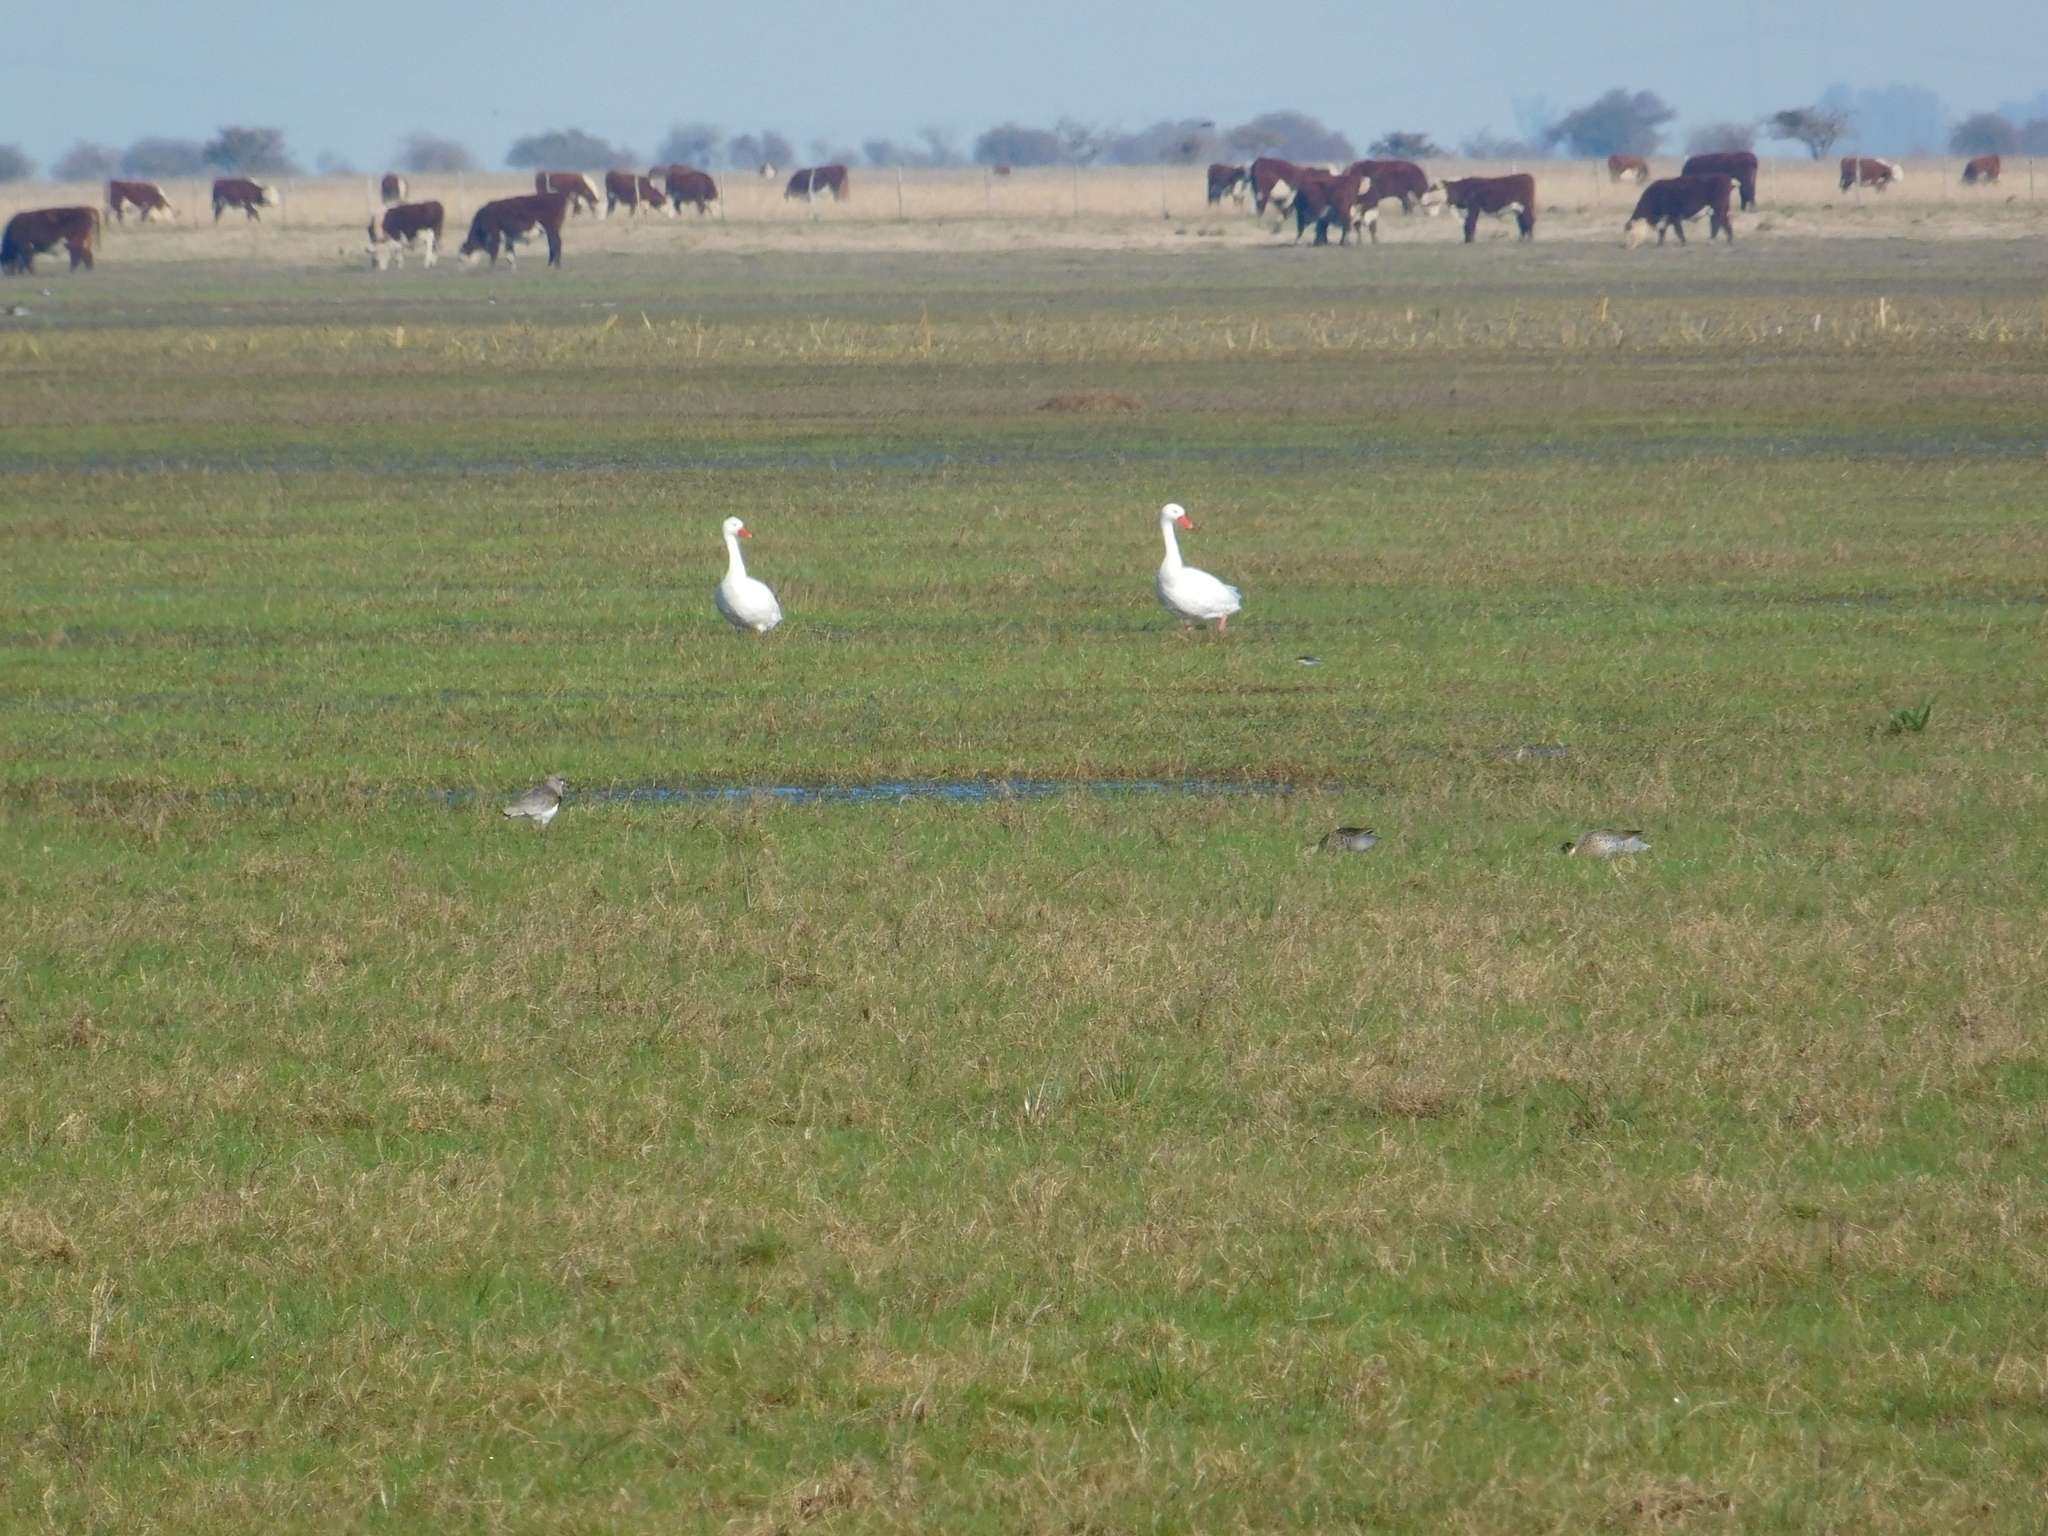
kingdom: Animalia
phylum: Chordata
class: Aves
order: Anseriformes
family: Anatidae
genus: Coscoroba
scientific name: Coscoroba coscoroba
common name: Coscoroba swan
